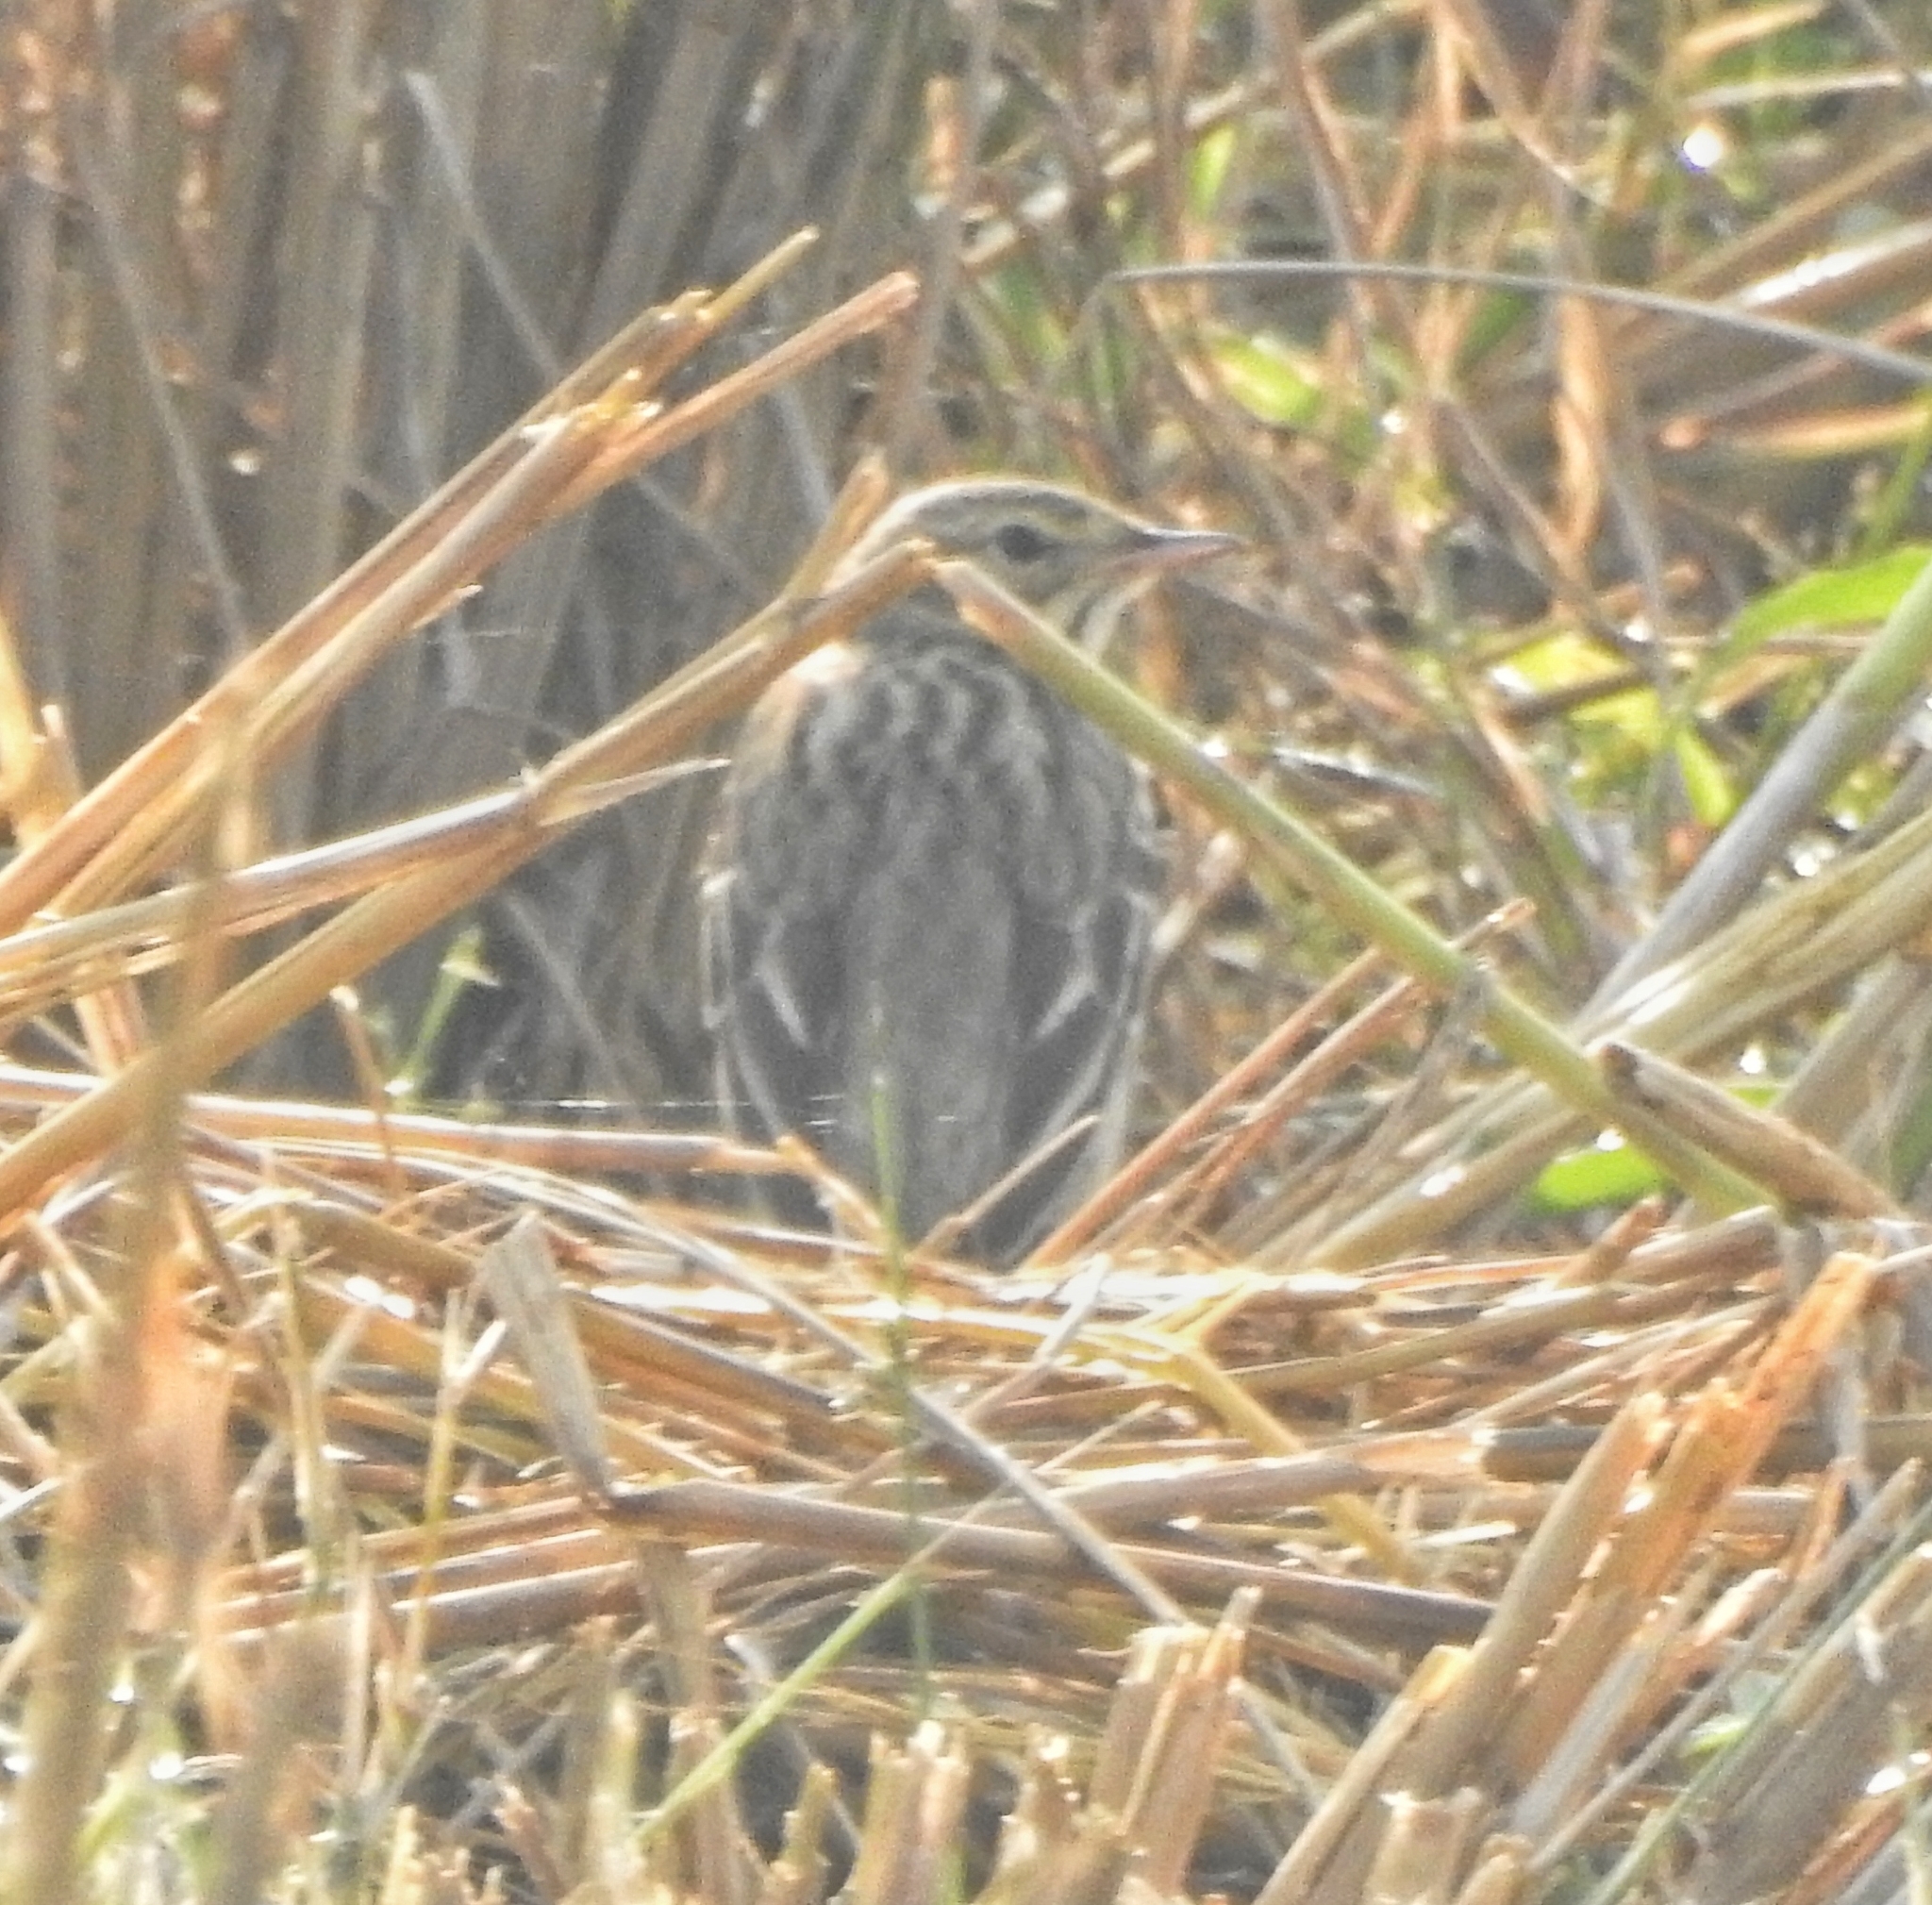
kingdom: Animalia
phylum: Chordata
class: Aves
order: Passeriformes
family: Motacillidae
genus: Anthus
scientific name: Anthus trivialis
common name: Tree pipit
